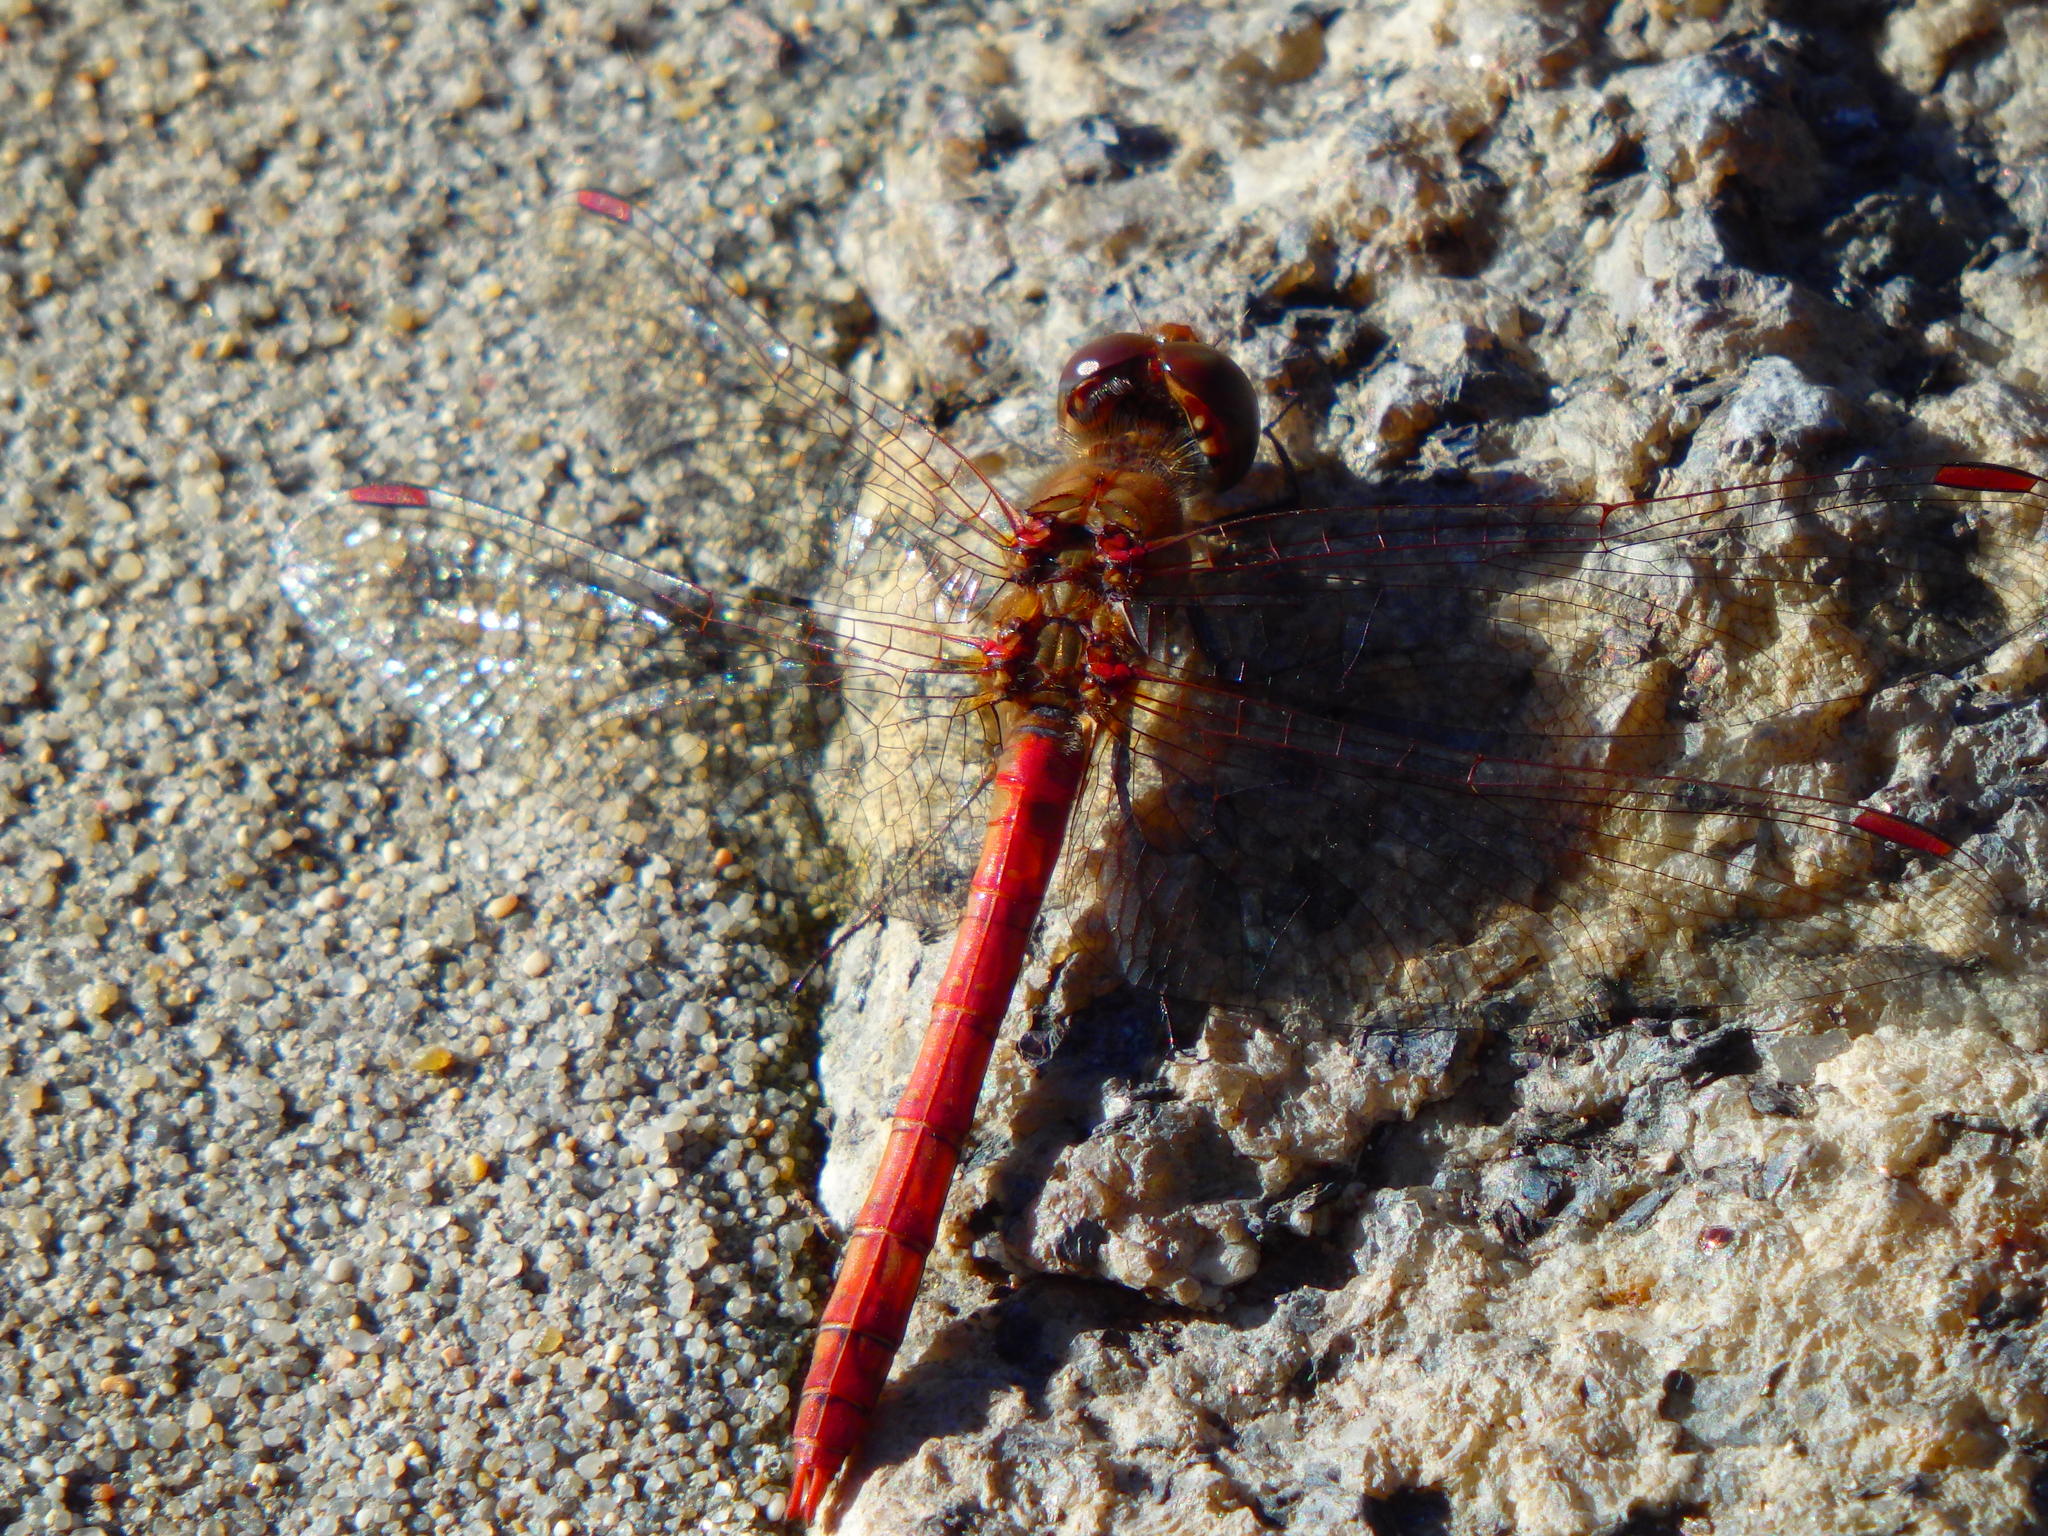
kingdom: Animalia
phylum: Arthropoda
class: Insecta
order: Odonata
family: Libellulidae
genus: Sympetrum
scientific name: Sympetrum striolatum
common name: Common darter
